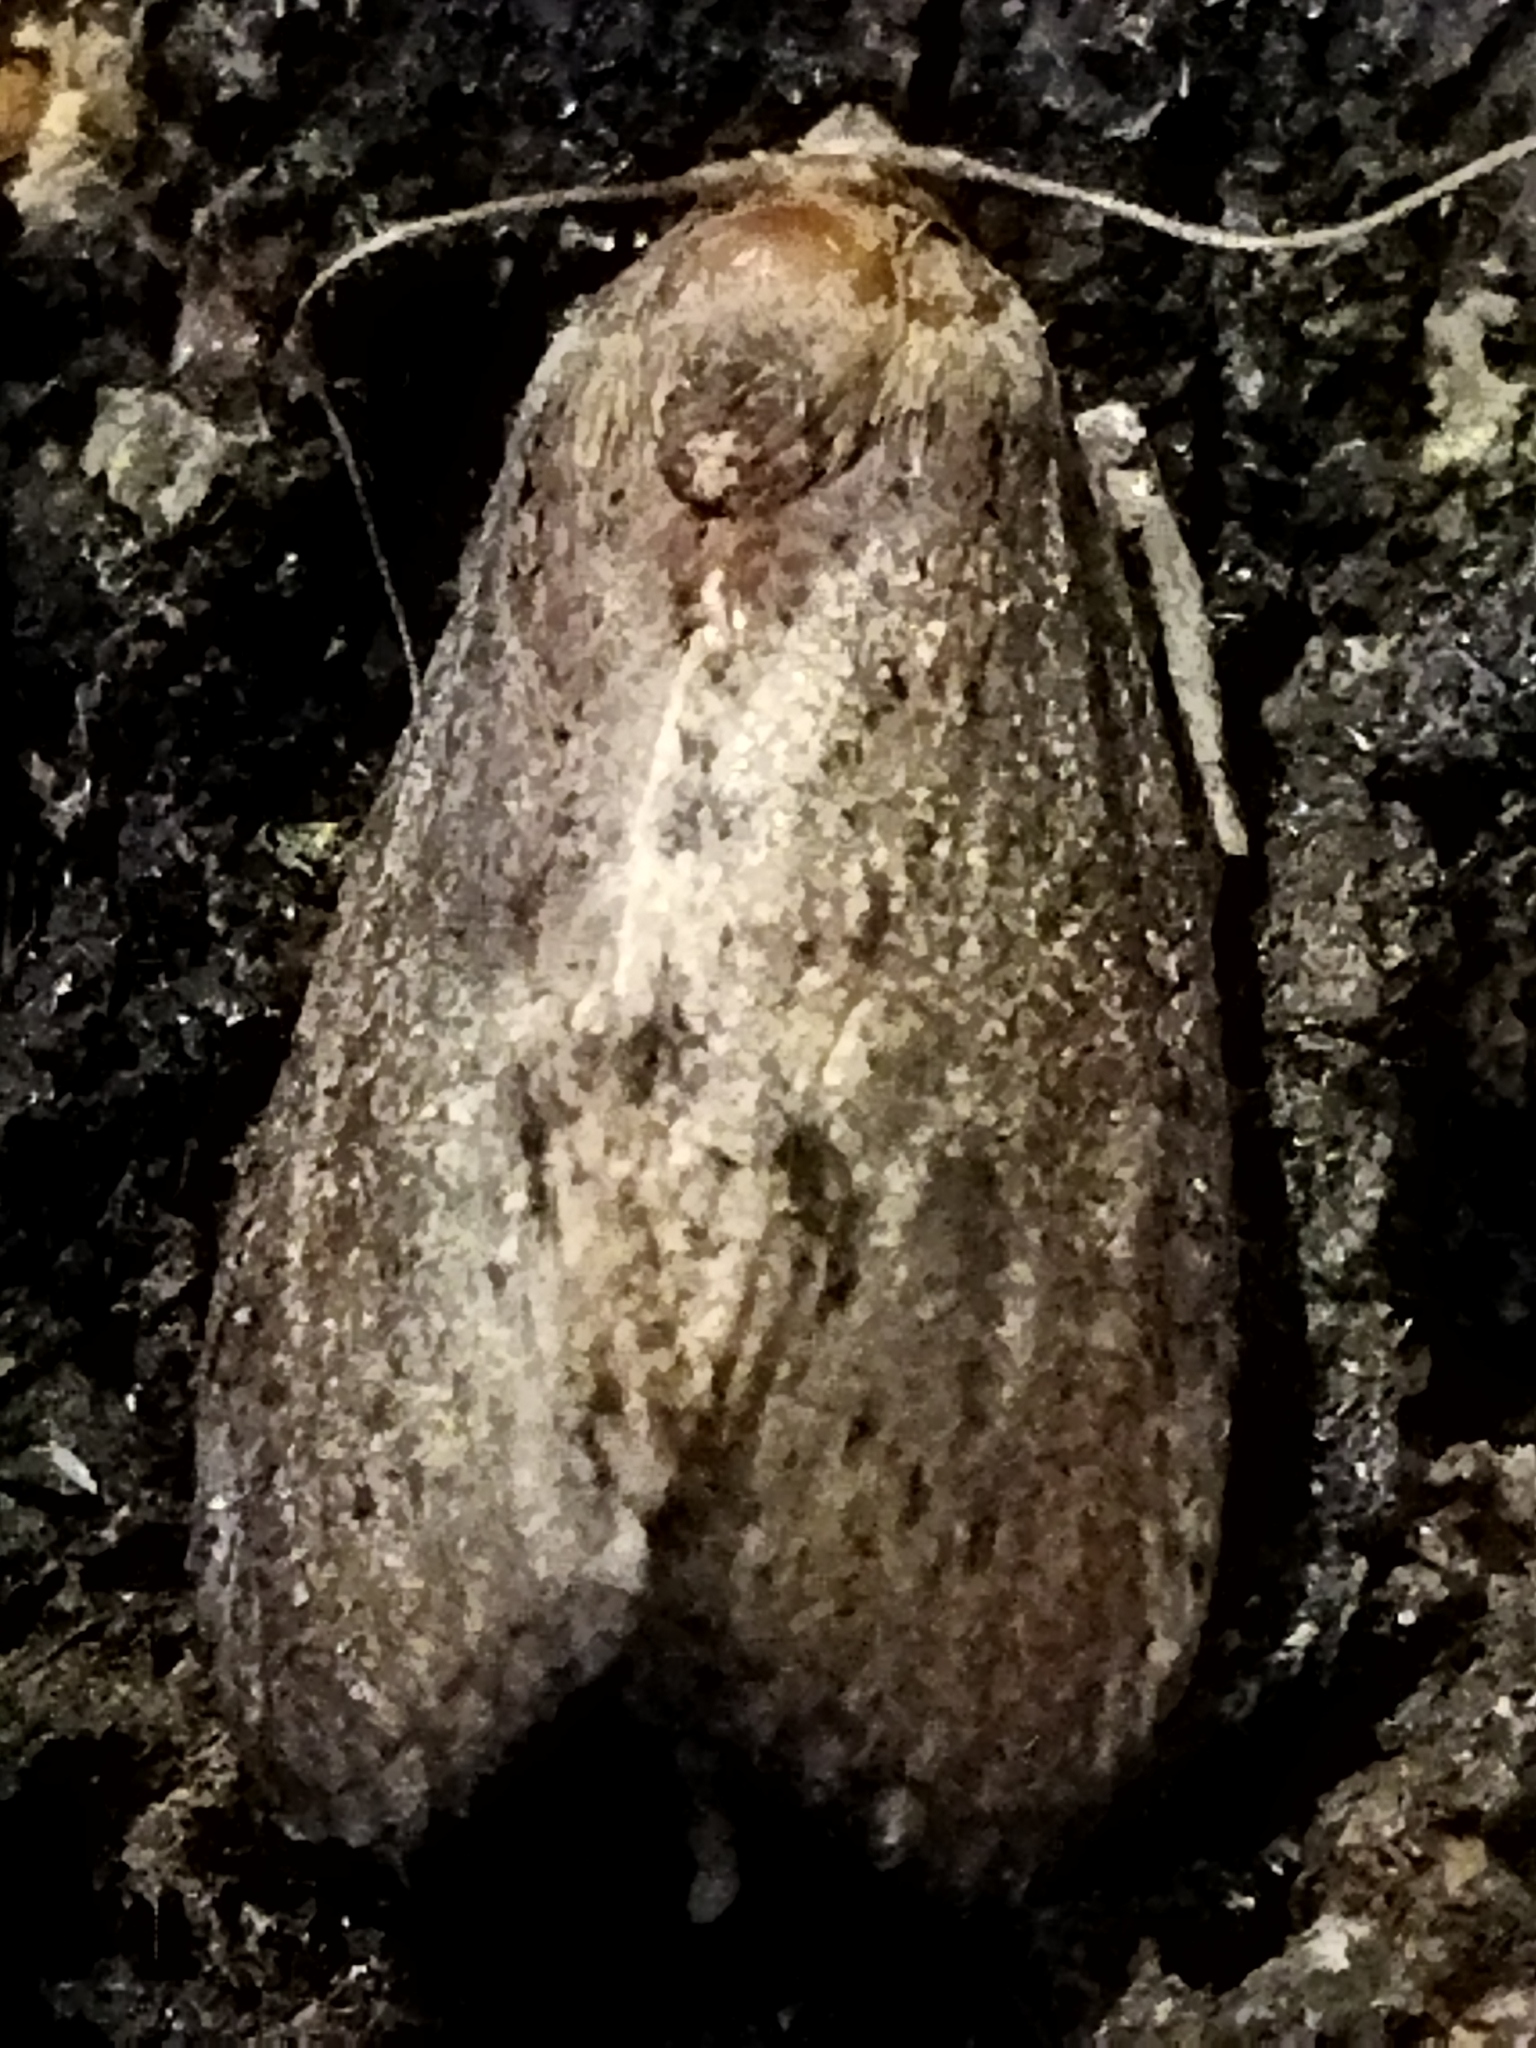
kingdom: Animalia
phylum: Arthropoda
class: Insecta
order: Lepidoptera
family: Pyralidae
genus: Galleria
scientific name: Galleria mellonella
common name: Greater wax moth
